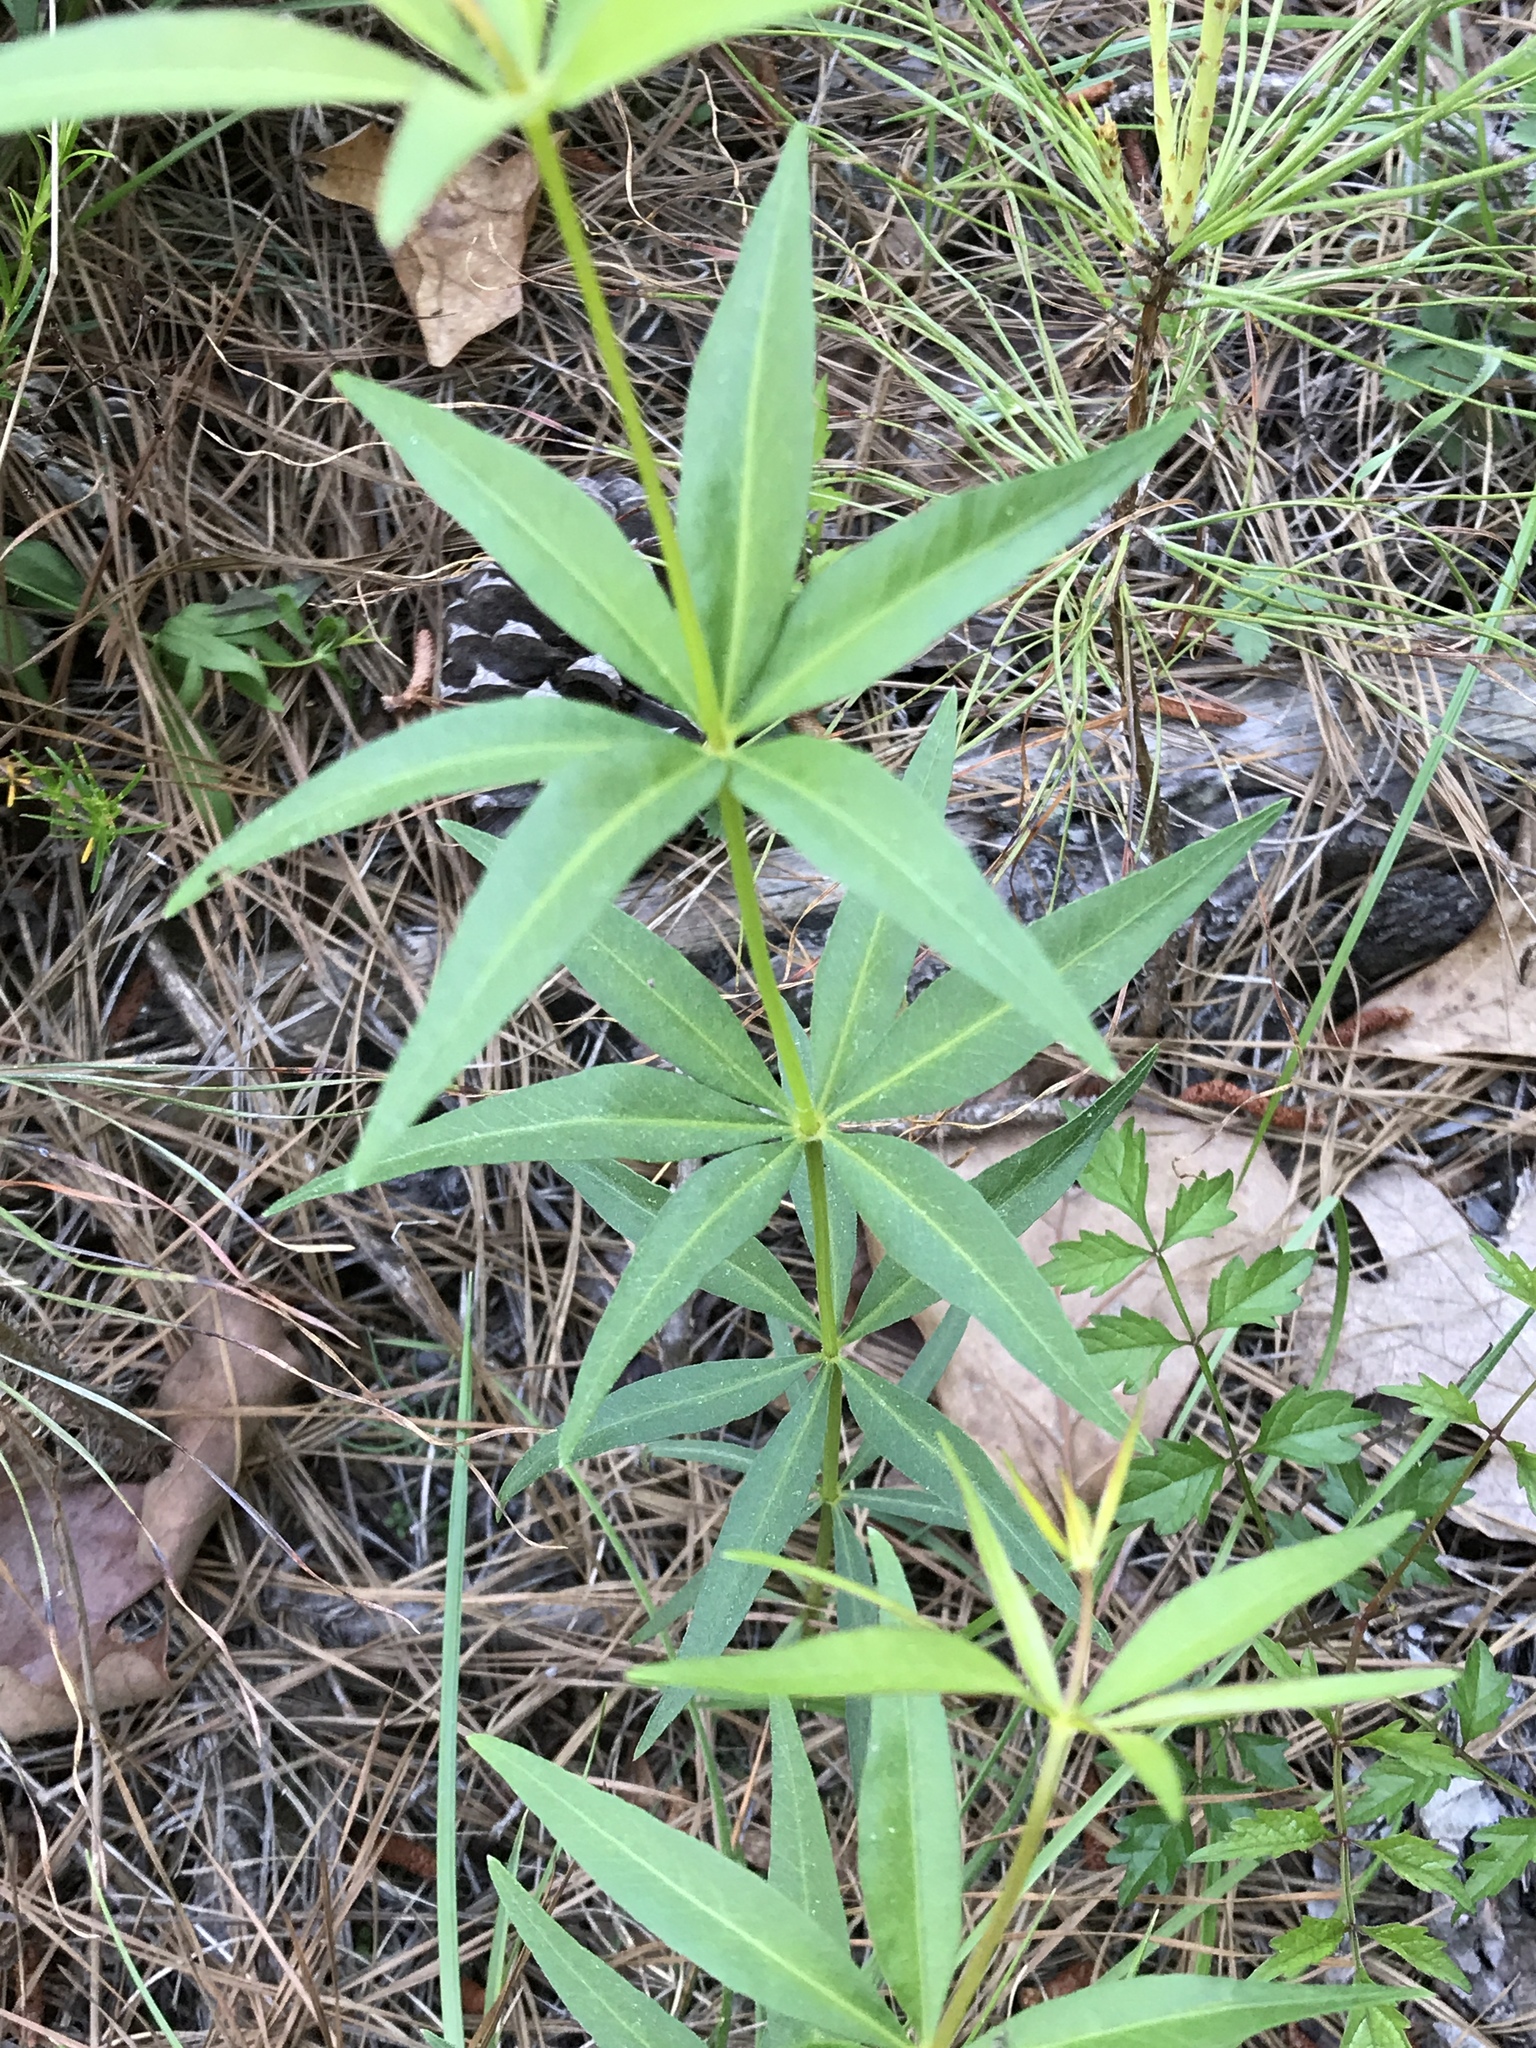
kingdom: Plantae
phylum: Tracheophyta
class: Magnoliopsida
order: Asterales
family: Asteraceae
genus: Coreopsis
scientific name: Coreopsis major
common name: Forest tickseed
